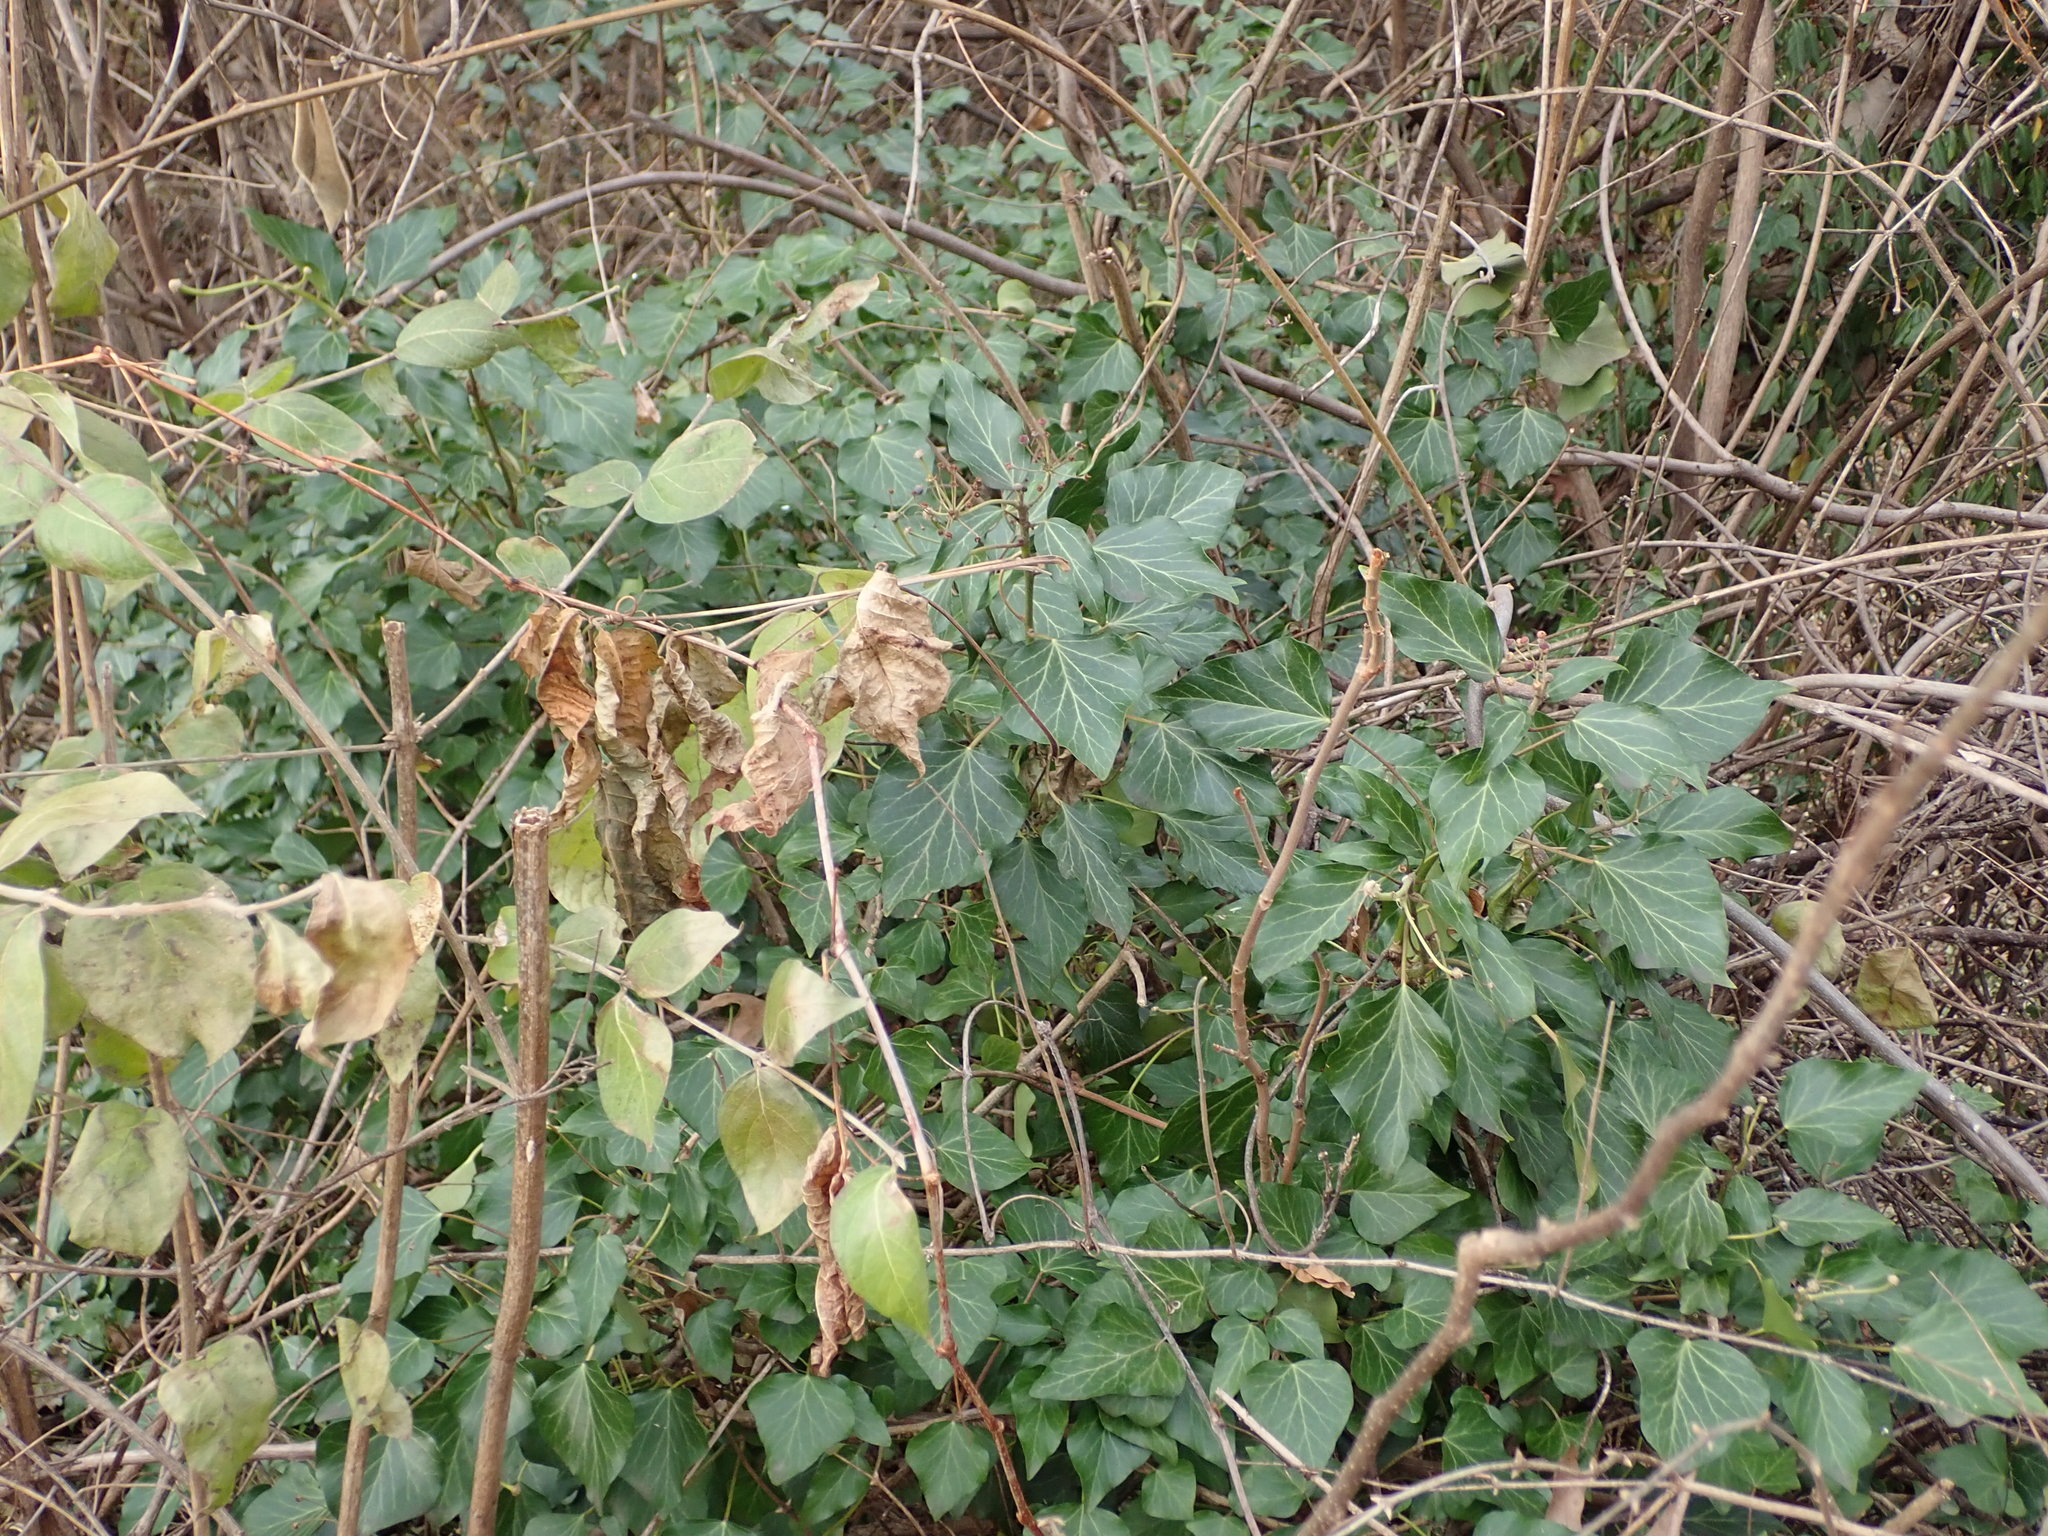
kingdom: Plantae
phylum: Tracheophyta
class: Magnoliopsida
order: Apiales
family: Araliaceae
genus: Hedera
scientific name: Hedera helix
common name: Ivy
